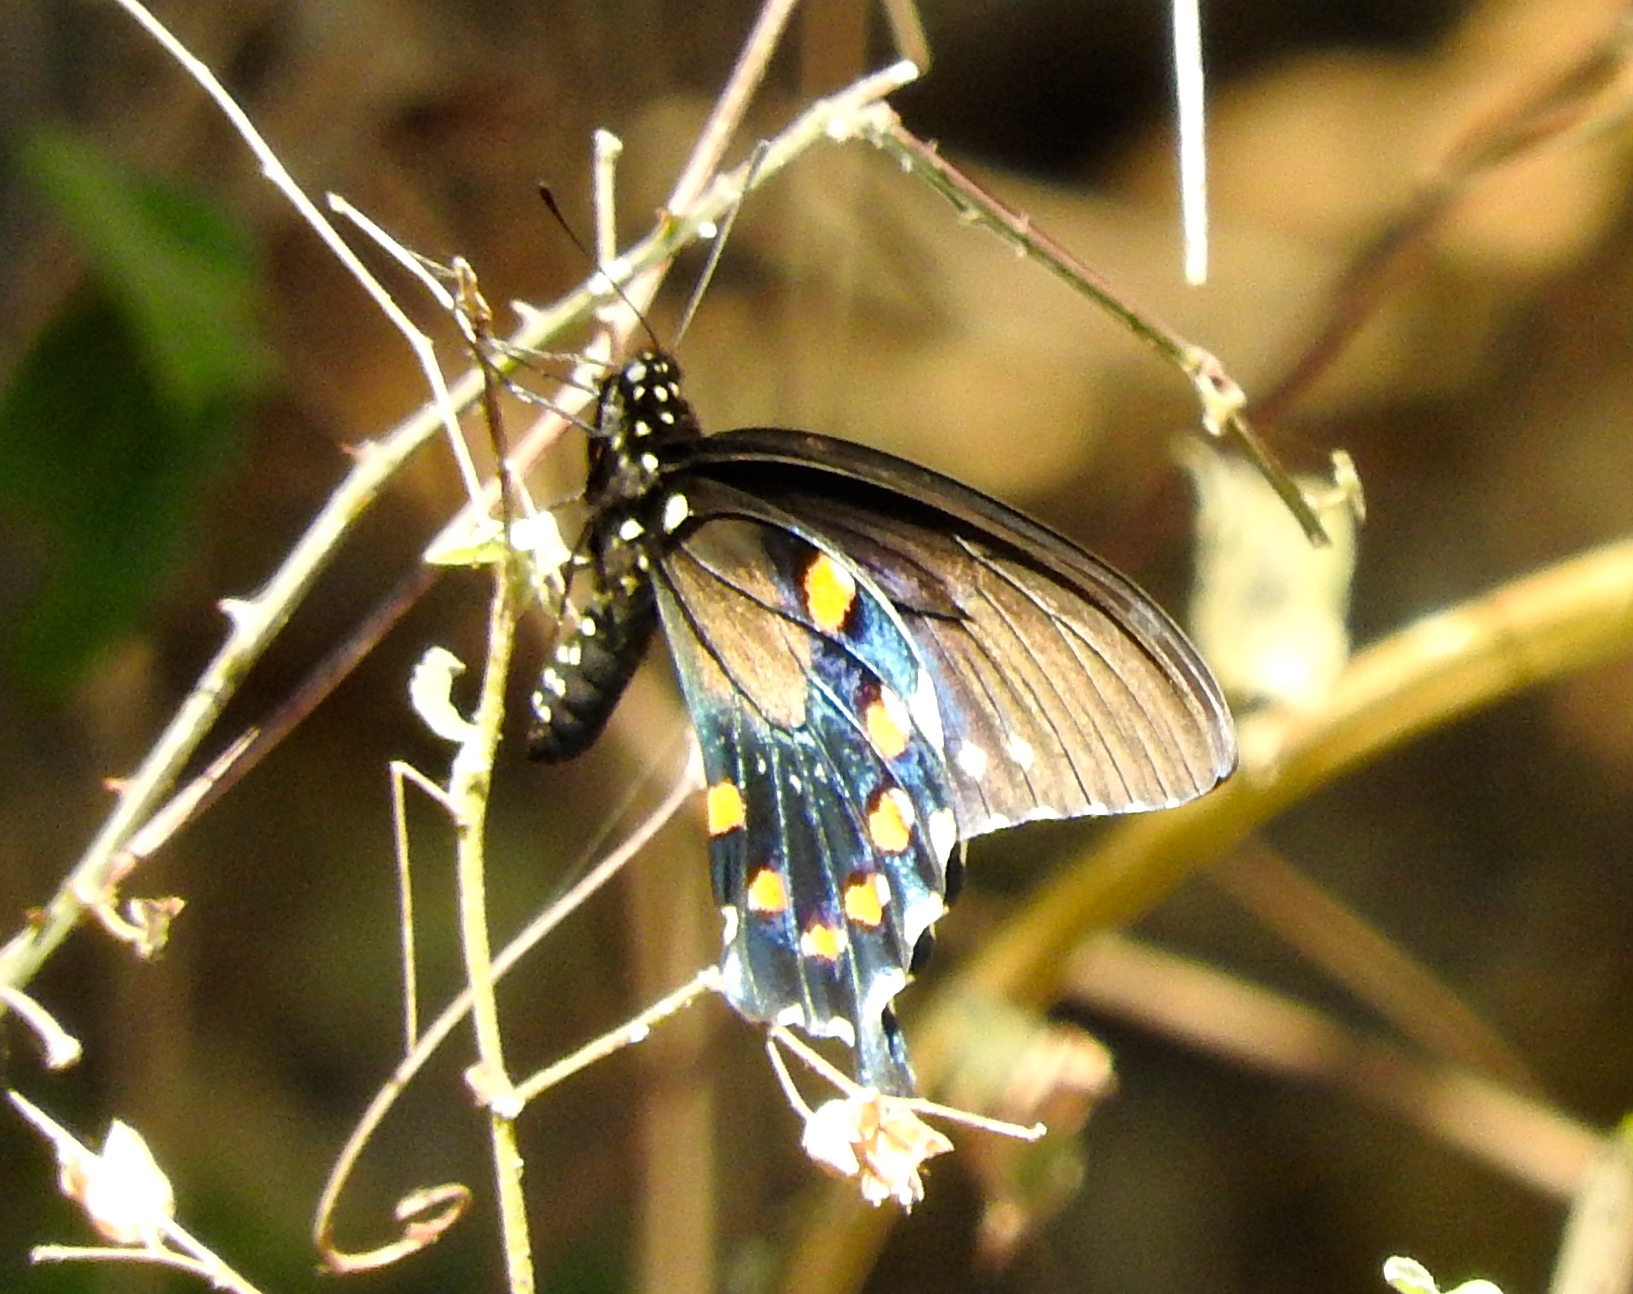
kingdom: Animalia
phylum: Arthropoda
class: Insecta
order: Lepidoptera
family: Papilionidae
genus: Battus
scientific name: Battus philenor
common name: Pipevine swallowtail
